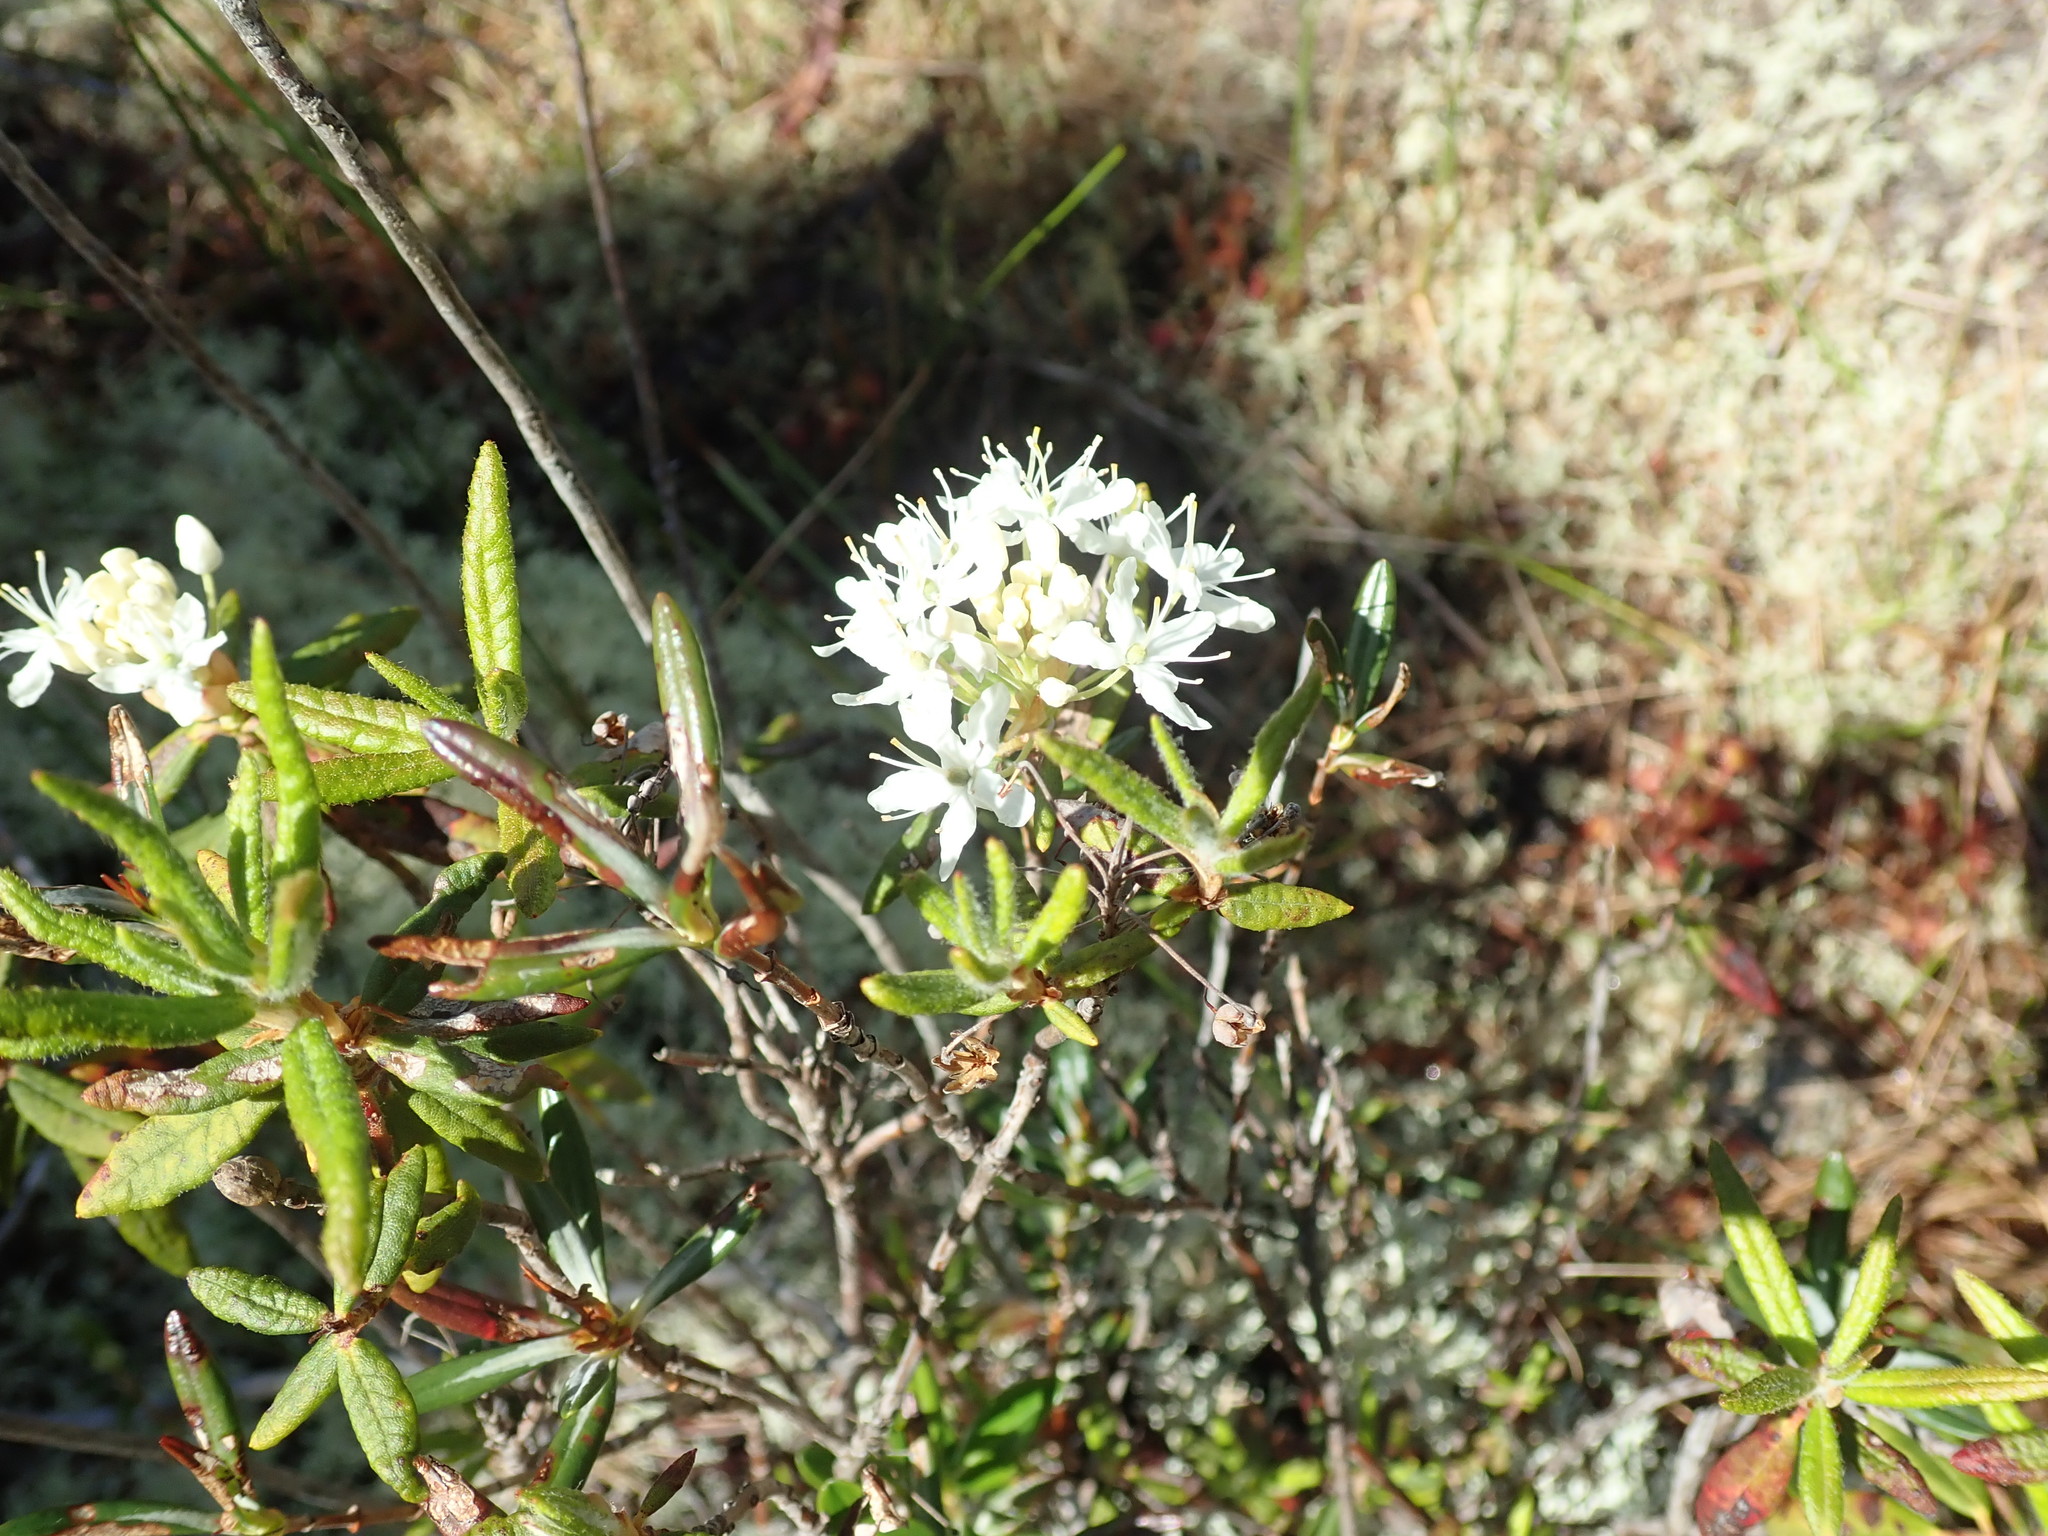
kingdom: Plantae
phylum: Tracheophyta
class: Magnoliopsida
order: Ericales
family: Ericaceae
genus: Rhododendron
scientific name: Rhododendron groenlandicum
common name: Bog labrador tea
